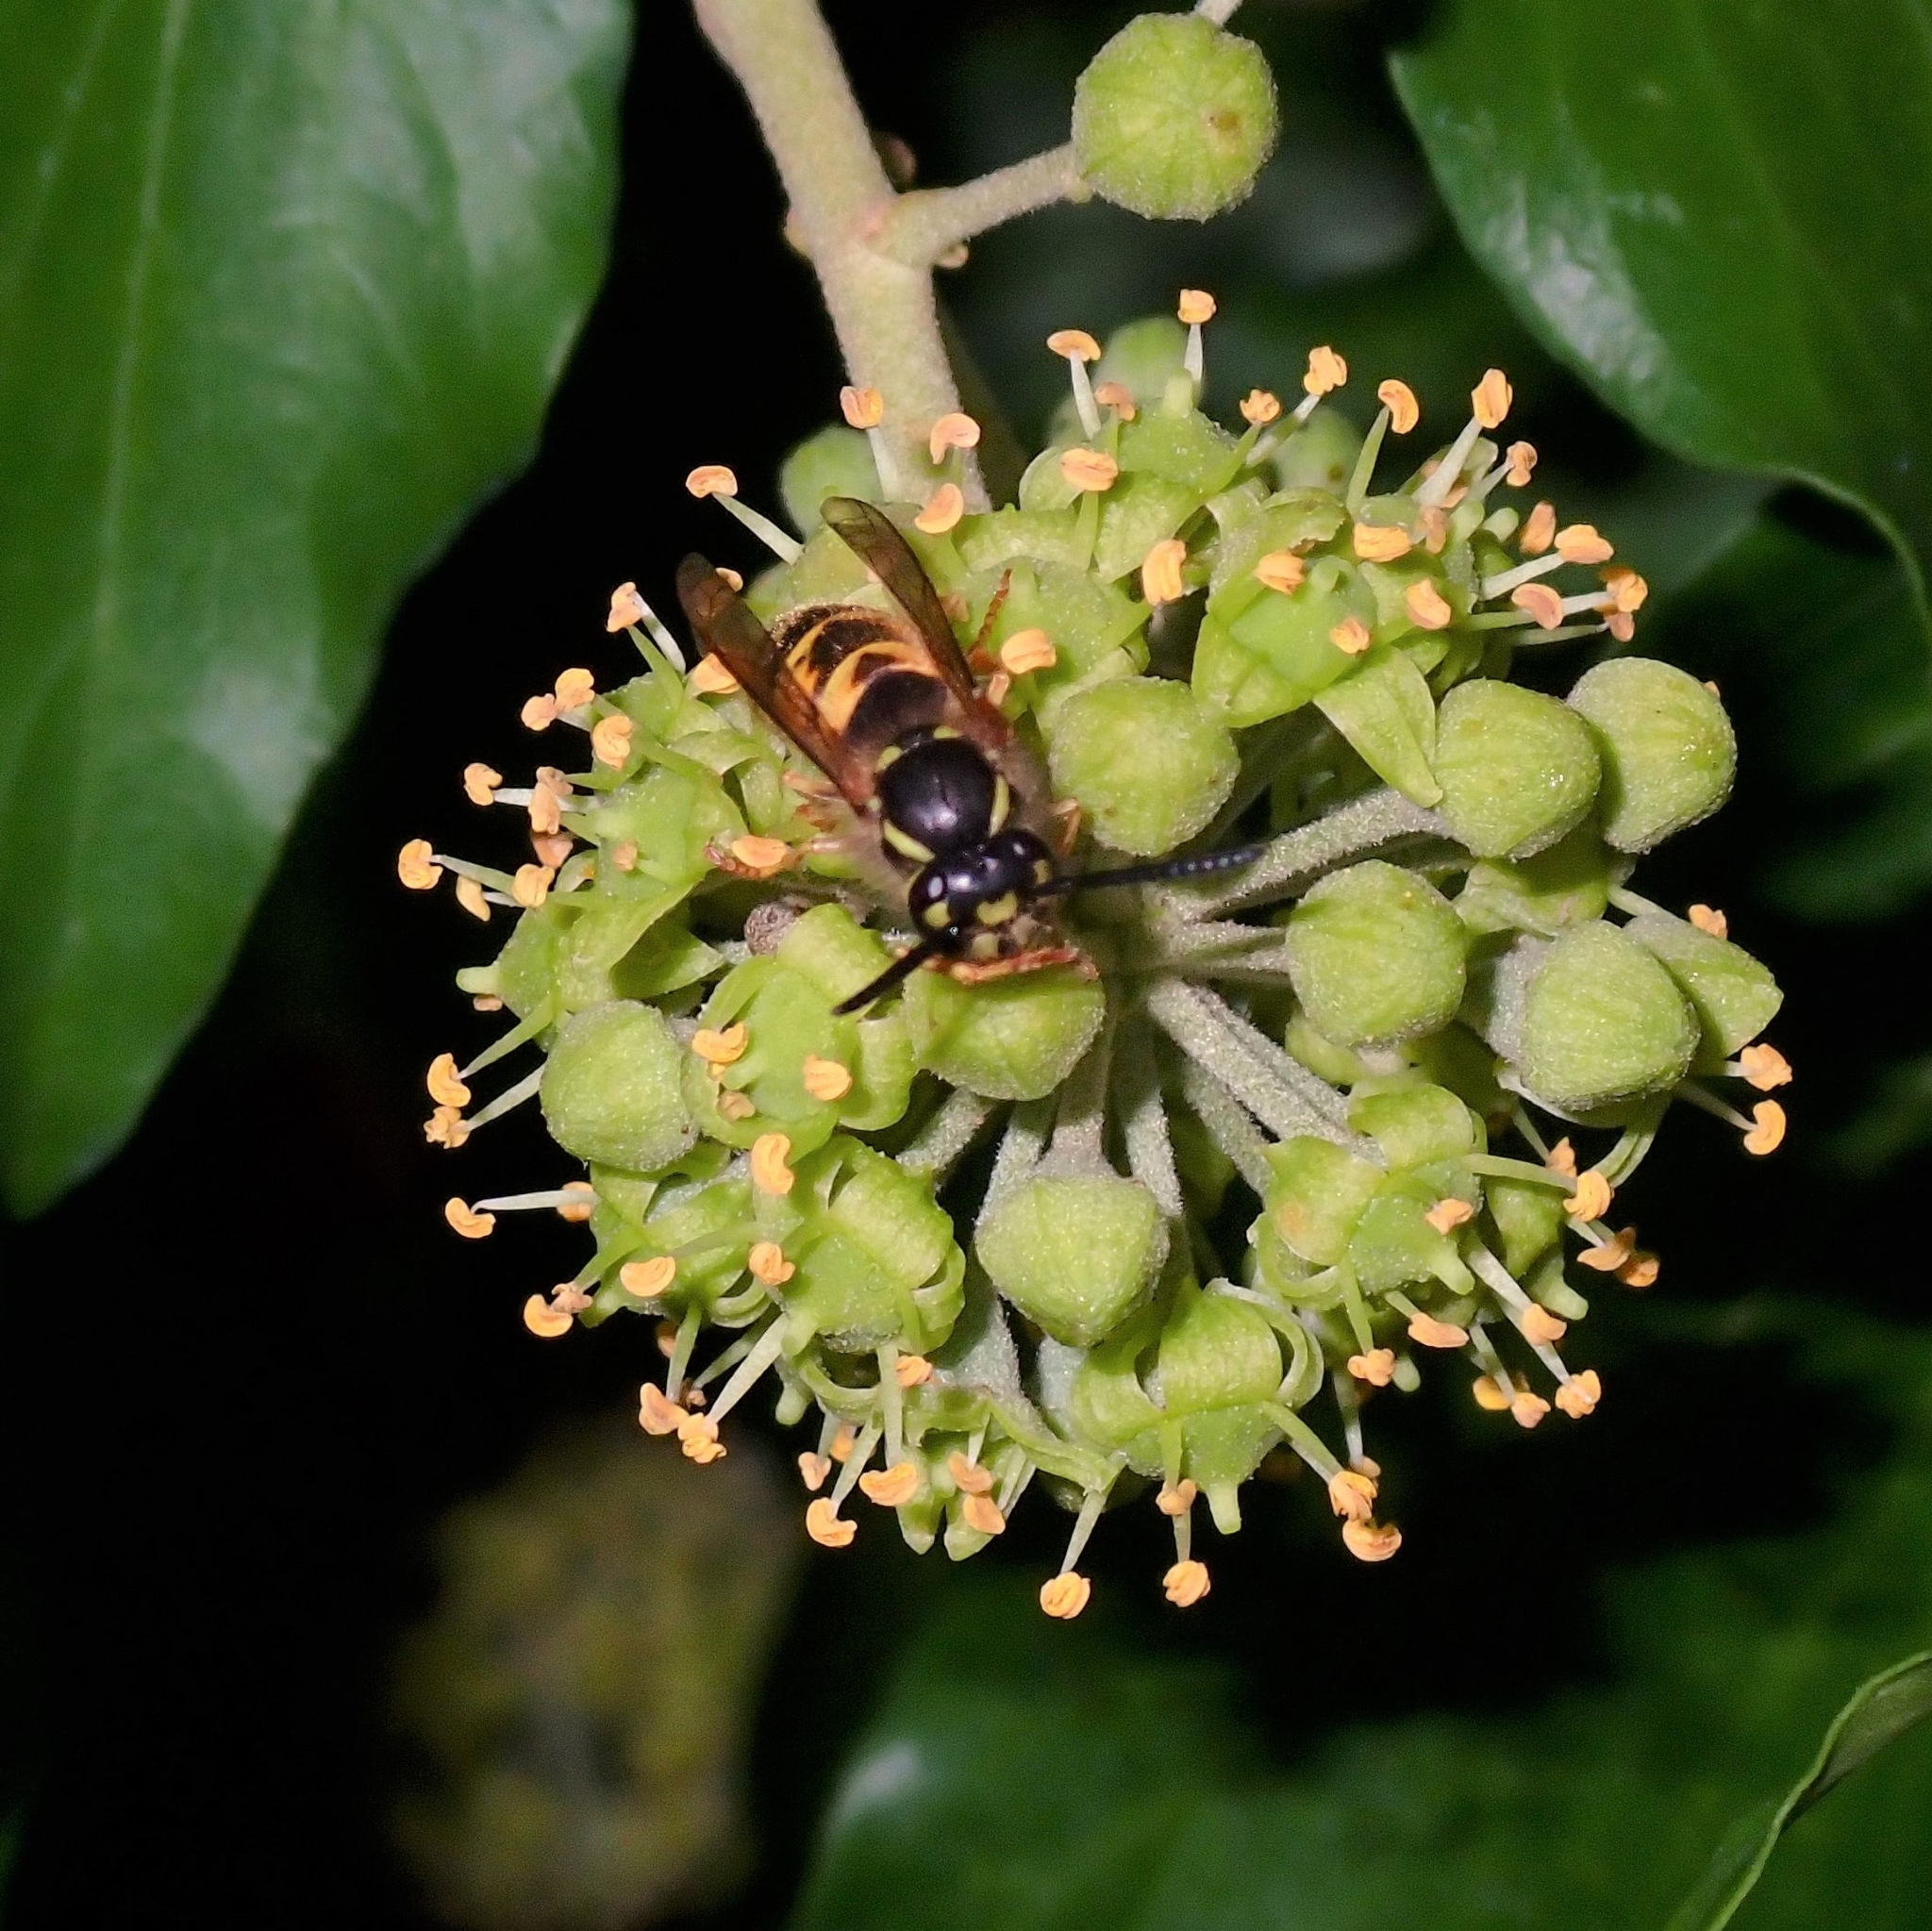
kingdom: Animalia
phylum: Arthropoda
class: Insecta
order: Hymenoptera
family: Vespidae
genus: Vespula
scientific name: Vespula vulgaris
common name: Common wasp
